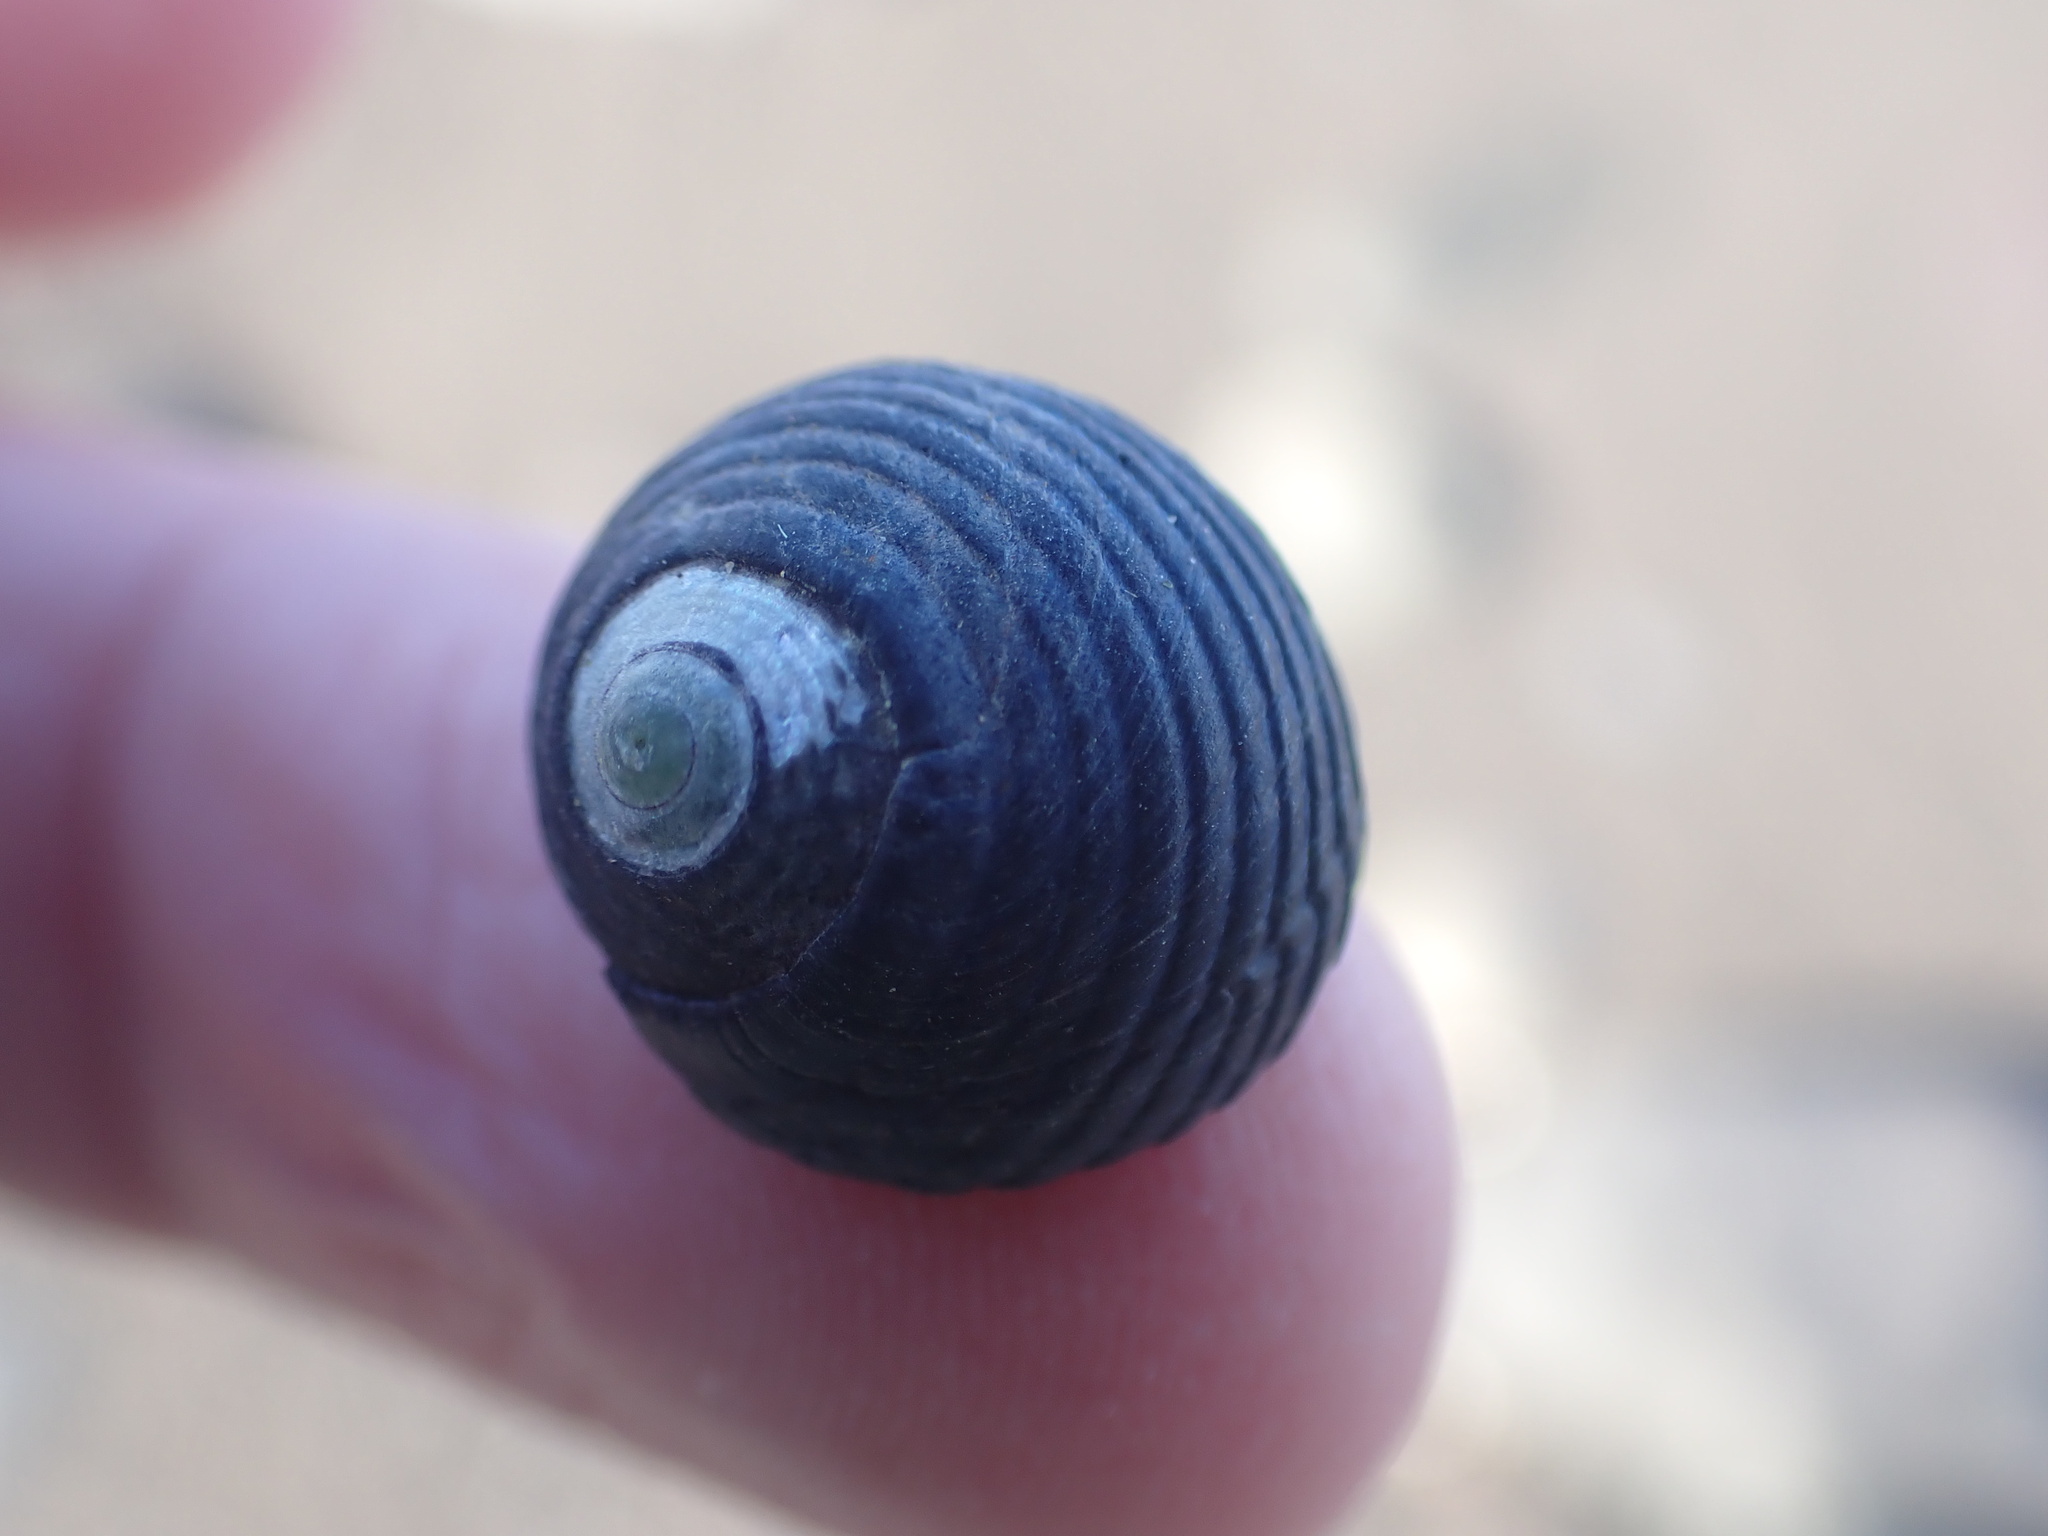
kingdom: Animalia
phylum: Mollusca
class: Gastropoda
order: Trochida
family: Trochidae
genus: Diloma
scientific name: Diloma zelandicum
